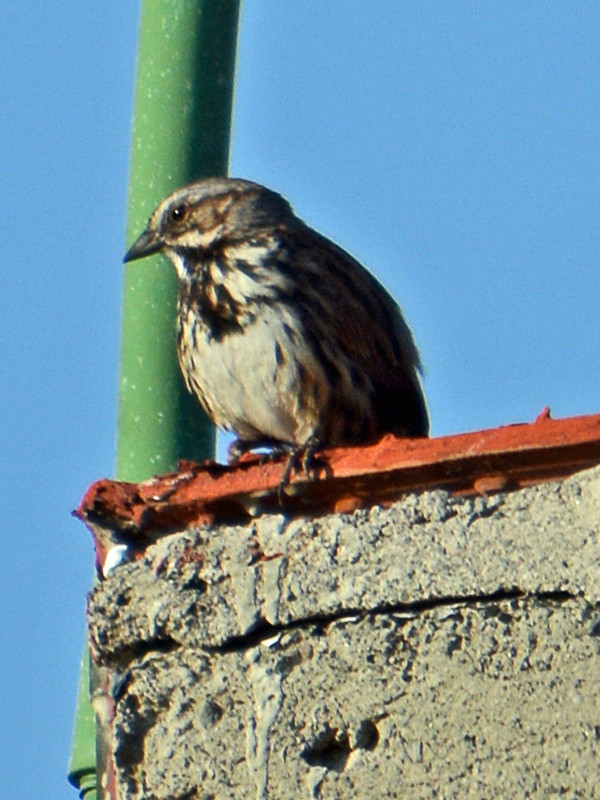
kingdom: Animalia
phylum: Chordata
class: Aves
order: Passeriformes
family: Passerellidae
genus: Melospiza
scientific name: Melospiza melodia
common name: Song sparrow
